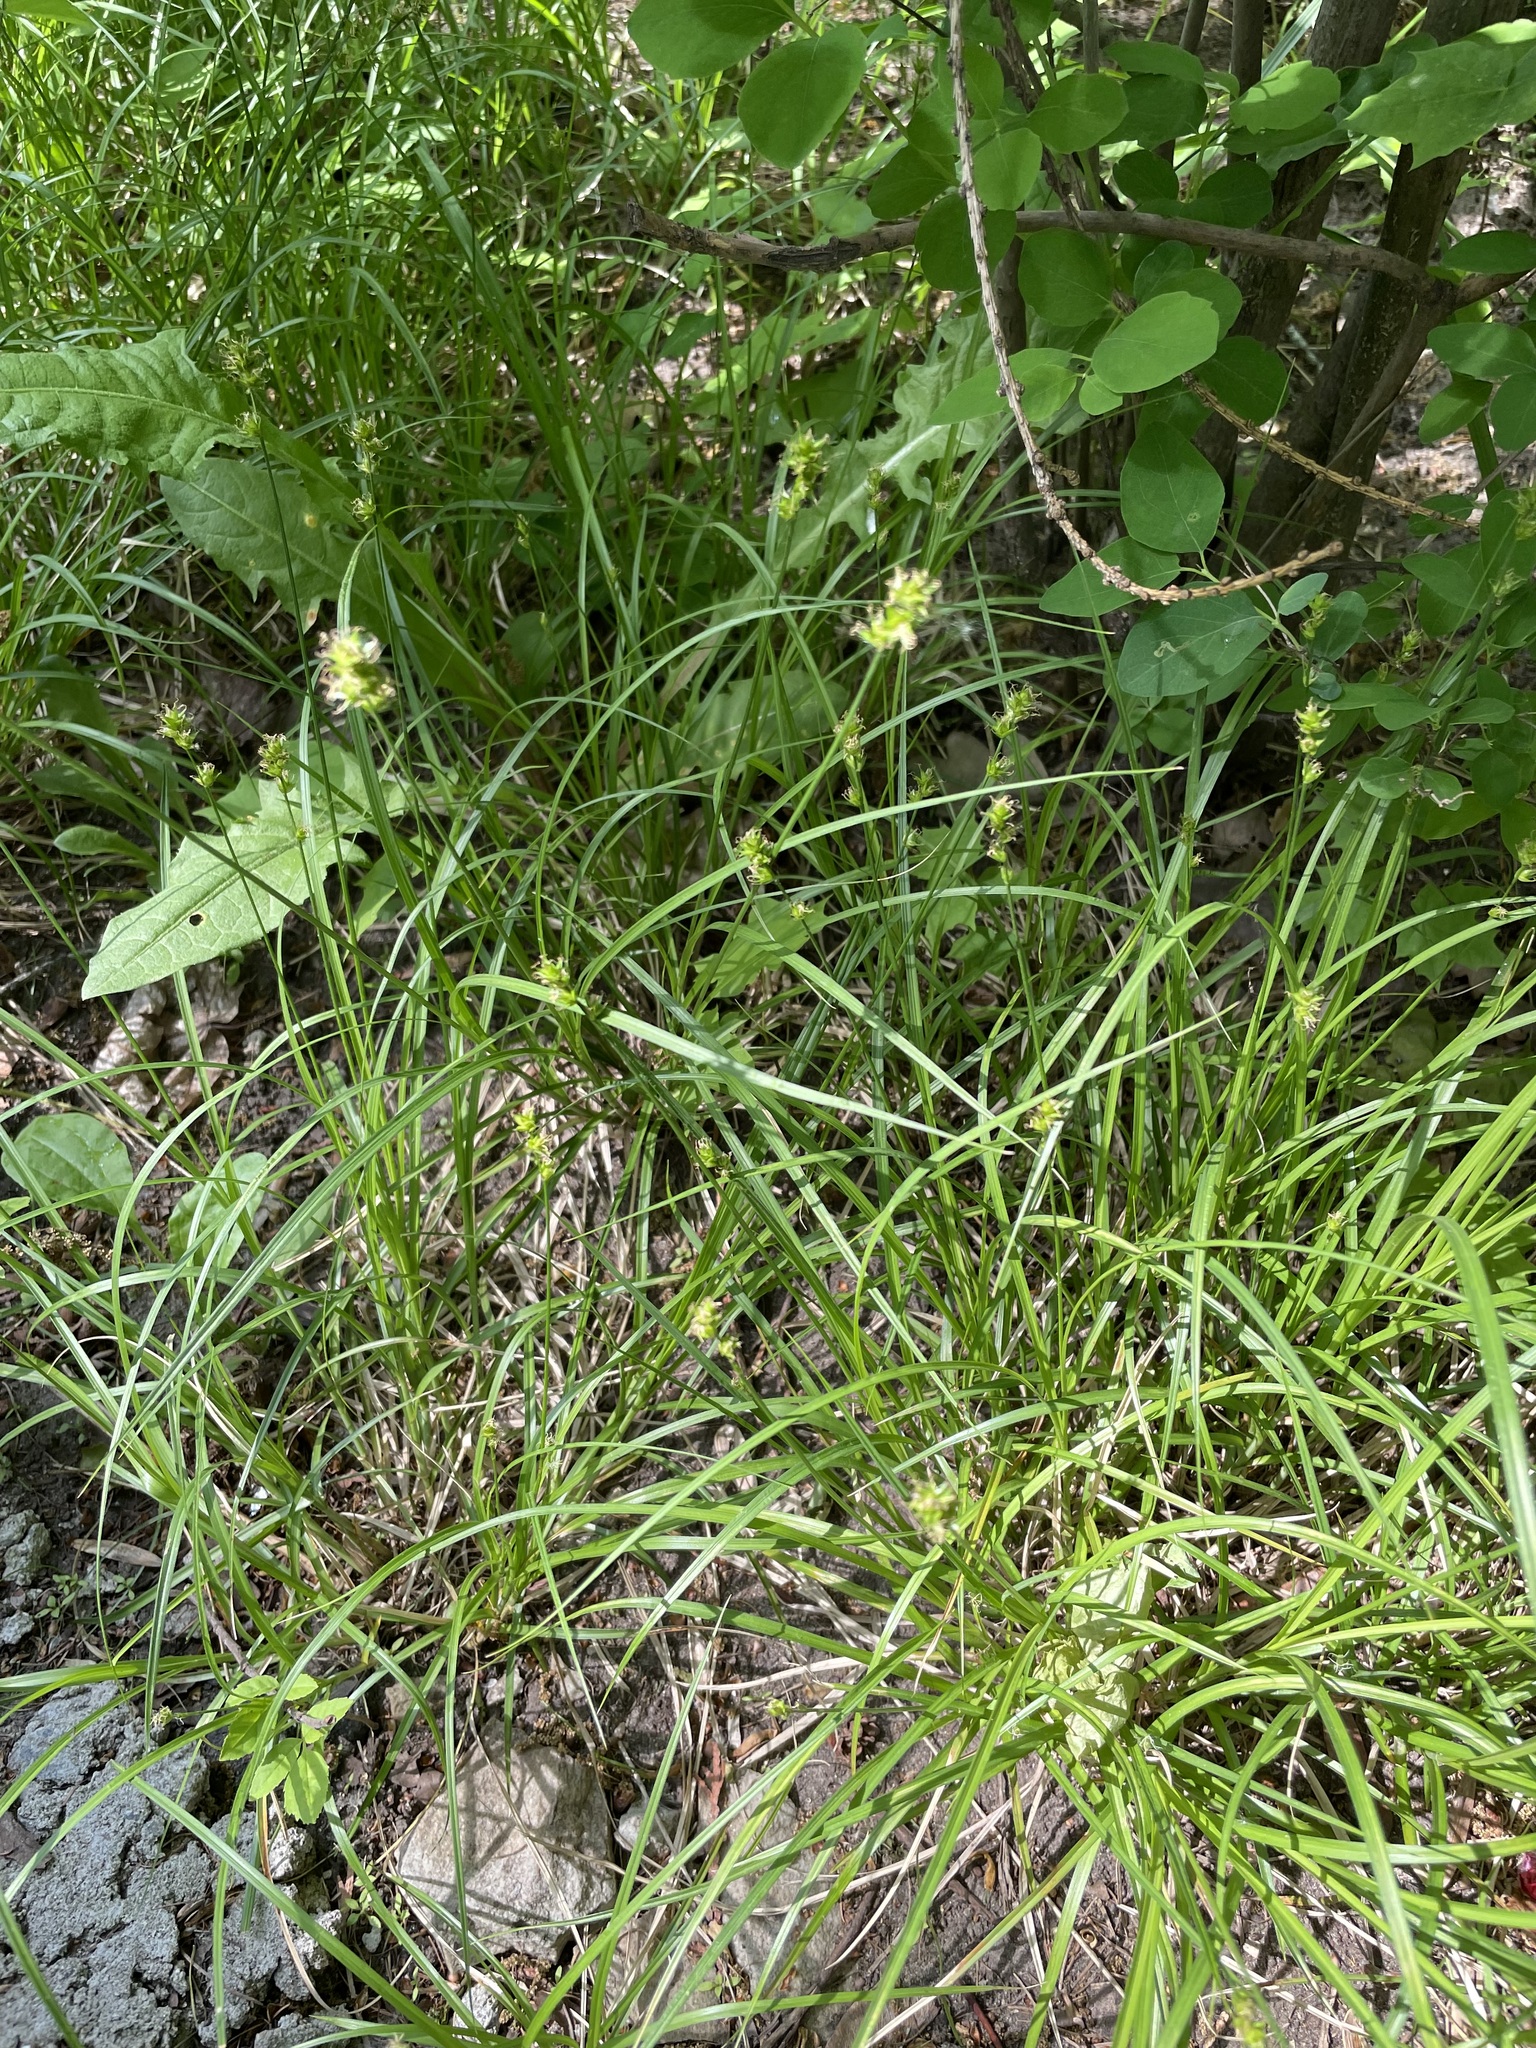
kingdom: Plantae
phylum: Tracheophyta
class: Liliopsida
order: Poales
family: Cyperaceae
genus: Carex
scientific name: Carex spicata
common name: Spiked sedge
